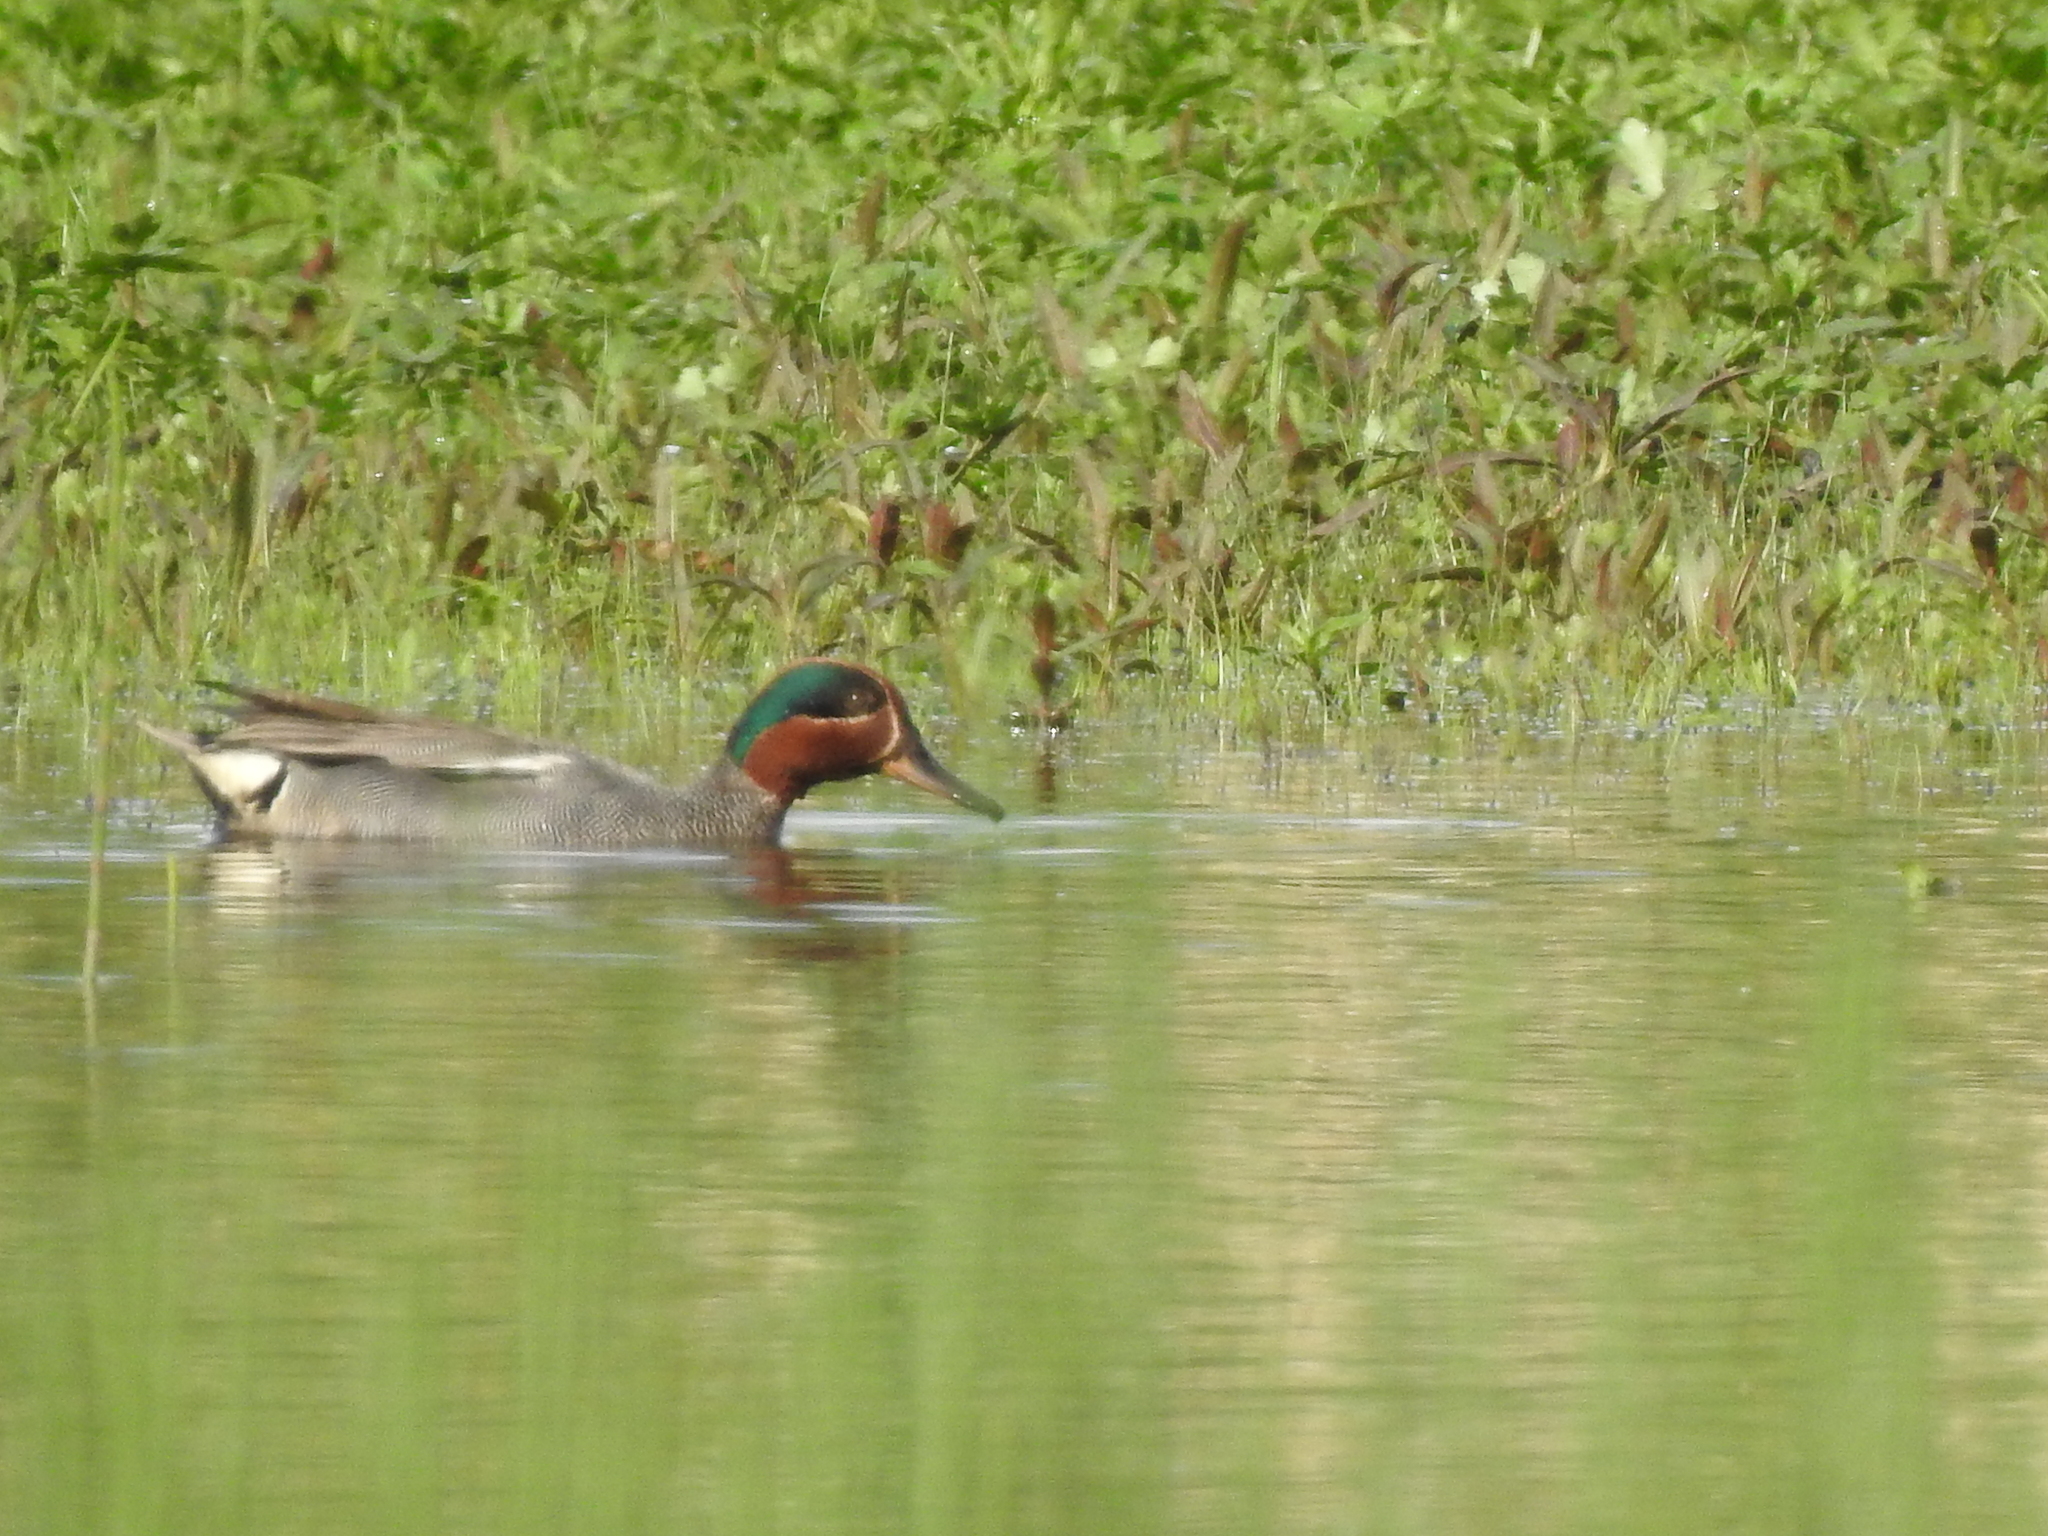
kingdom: Animalia
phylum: Chordata
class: Aves
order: Anseriformes
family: Anatidae
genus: Anas
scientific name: Anas crecca
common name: Eurasian teal
